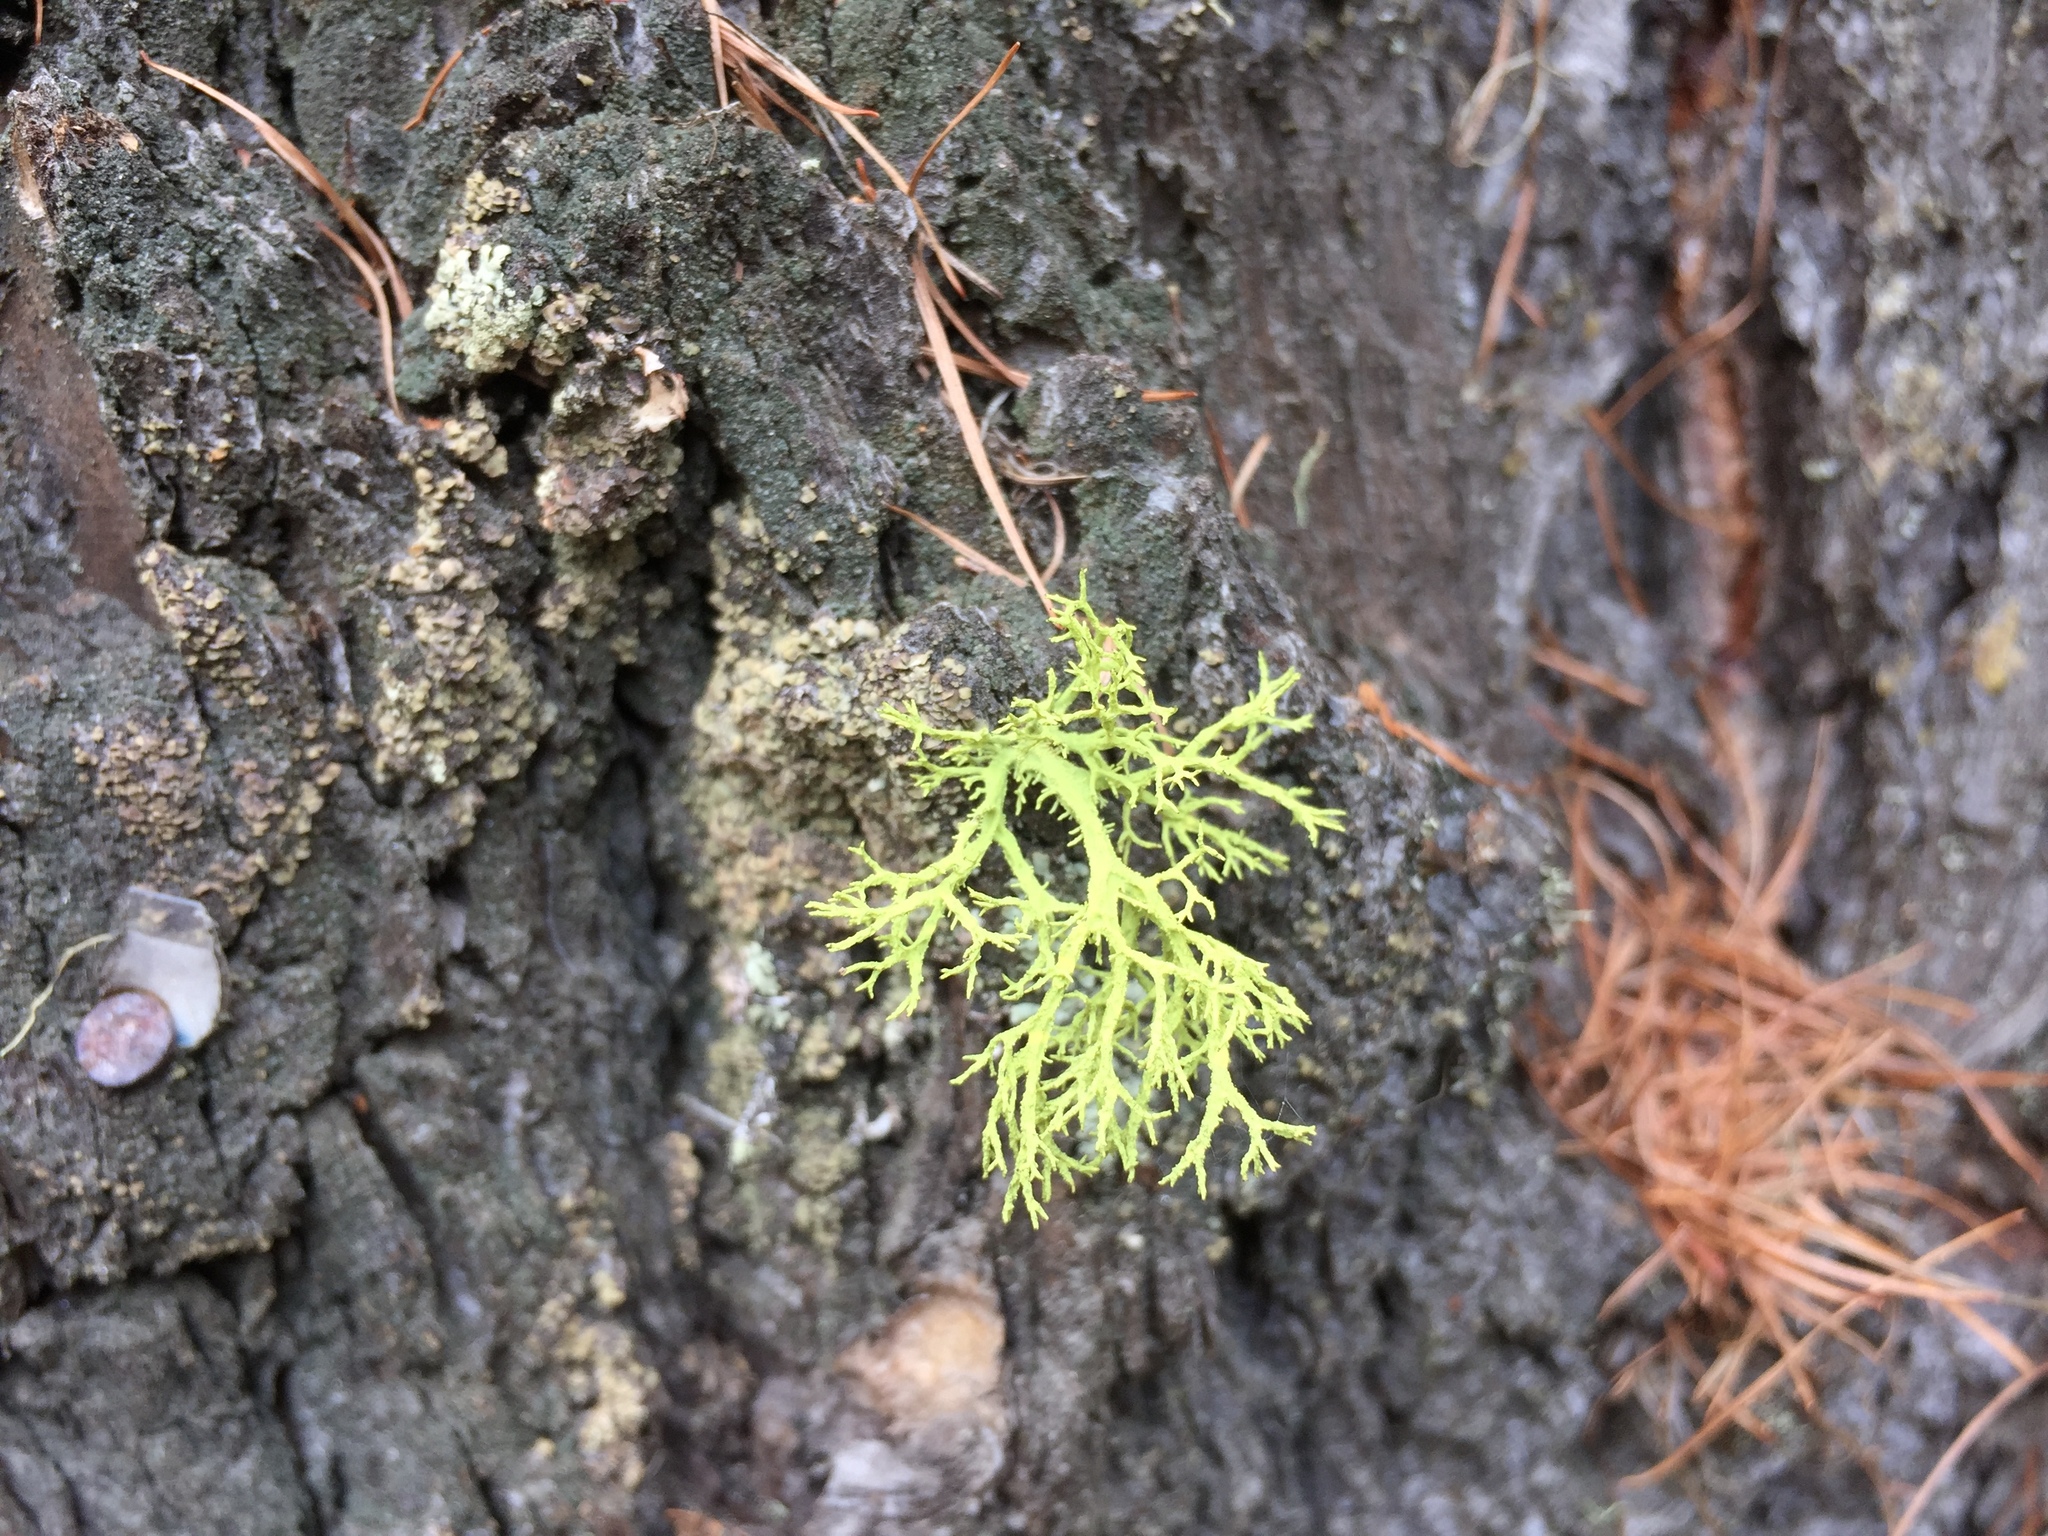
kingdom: Fungi
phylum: Ascomycota
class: Lecanoromycetes
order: Lecanorales
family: Parmeliaceae
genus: Letharia
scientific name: Letharia vulpina
